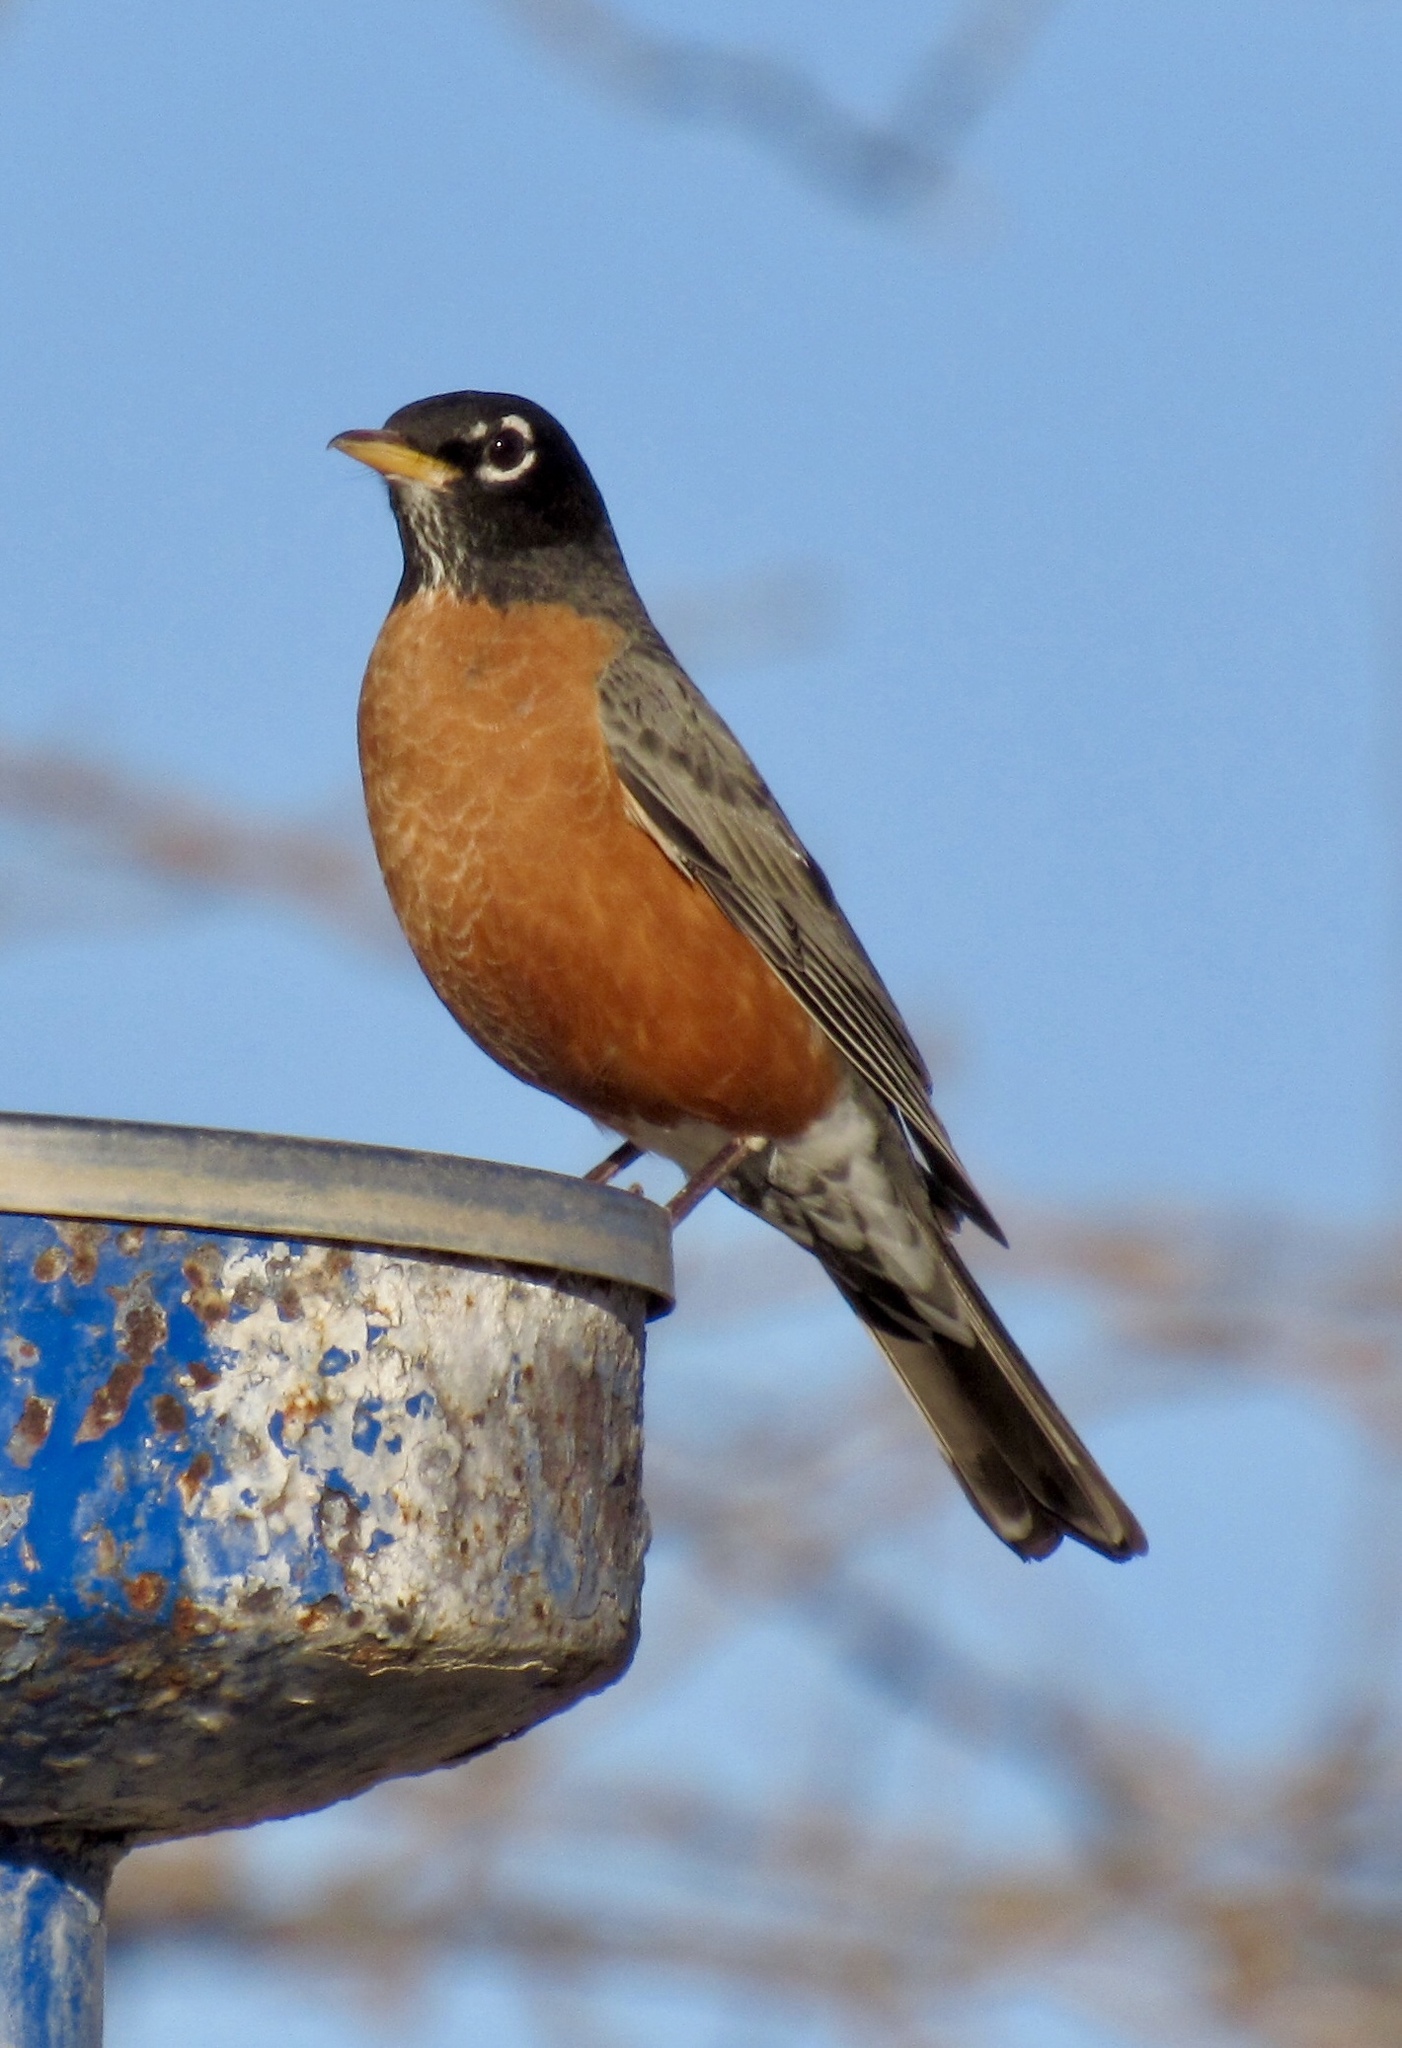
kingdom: Animalia
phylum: Chordata
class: Aves
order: Passeriformes
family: Turdidae
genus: Turdus
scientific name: Turdus migratorius
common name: American robin
